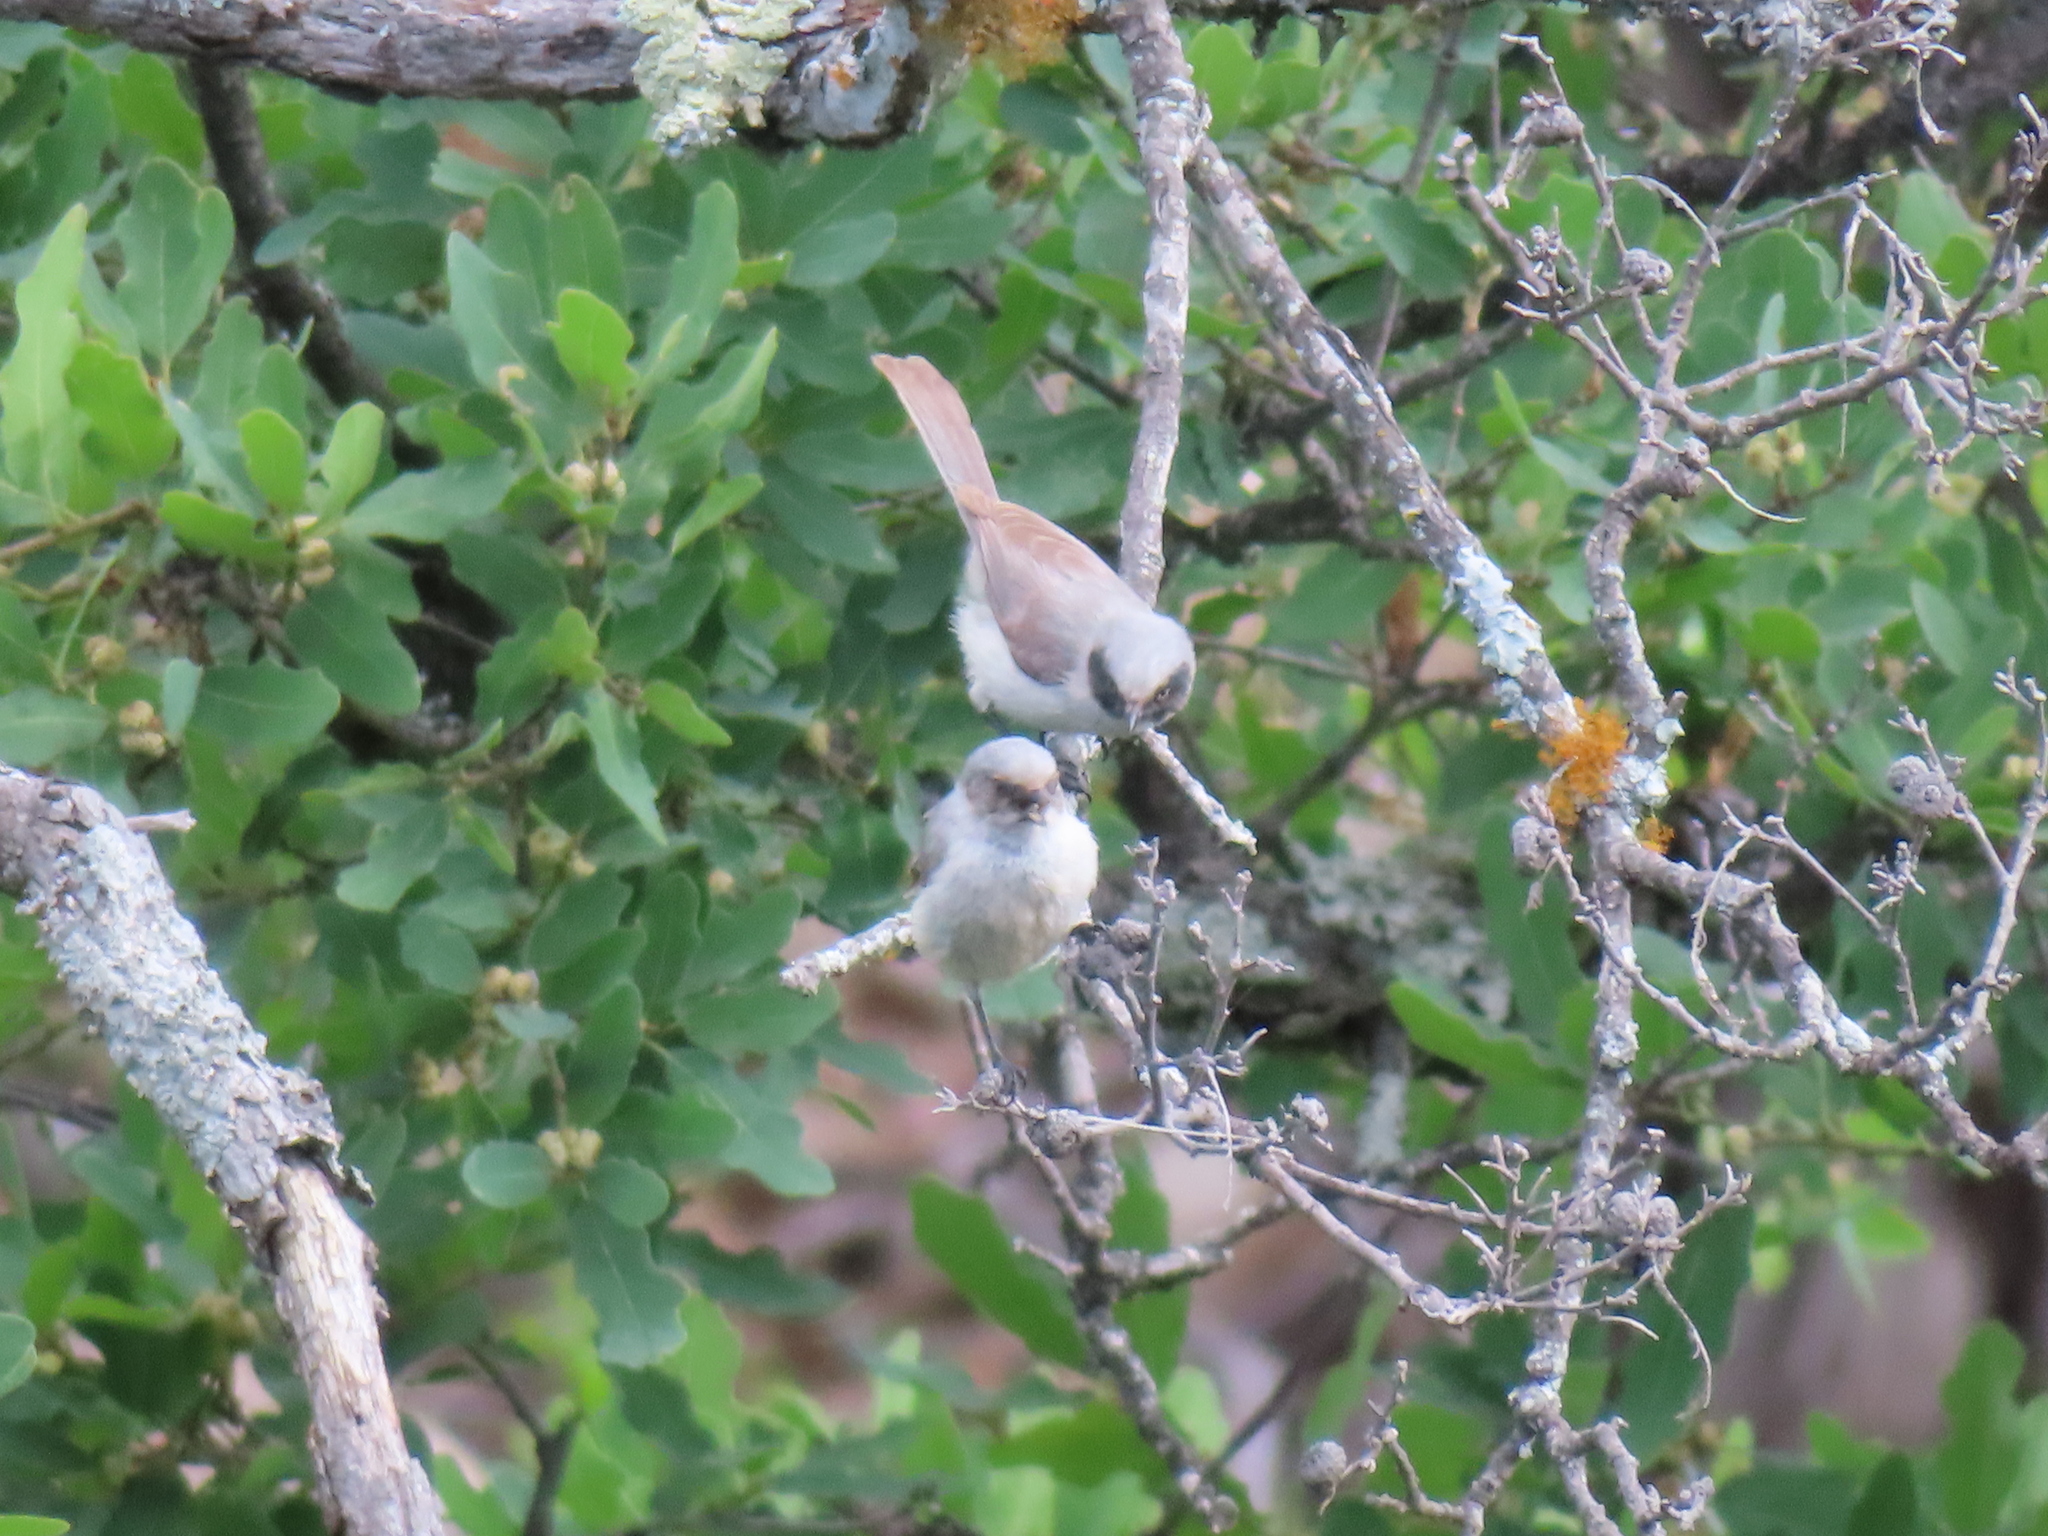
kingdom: Animalia
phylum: Chordata
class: Aves
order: Passeriformes
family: Aegithalidae
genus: Psaltriparus
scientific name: Psaltriparus minimus
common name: American bushtit
